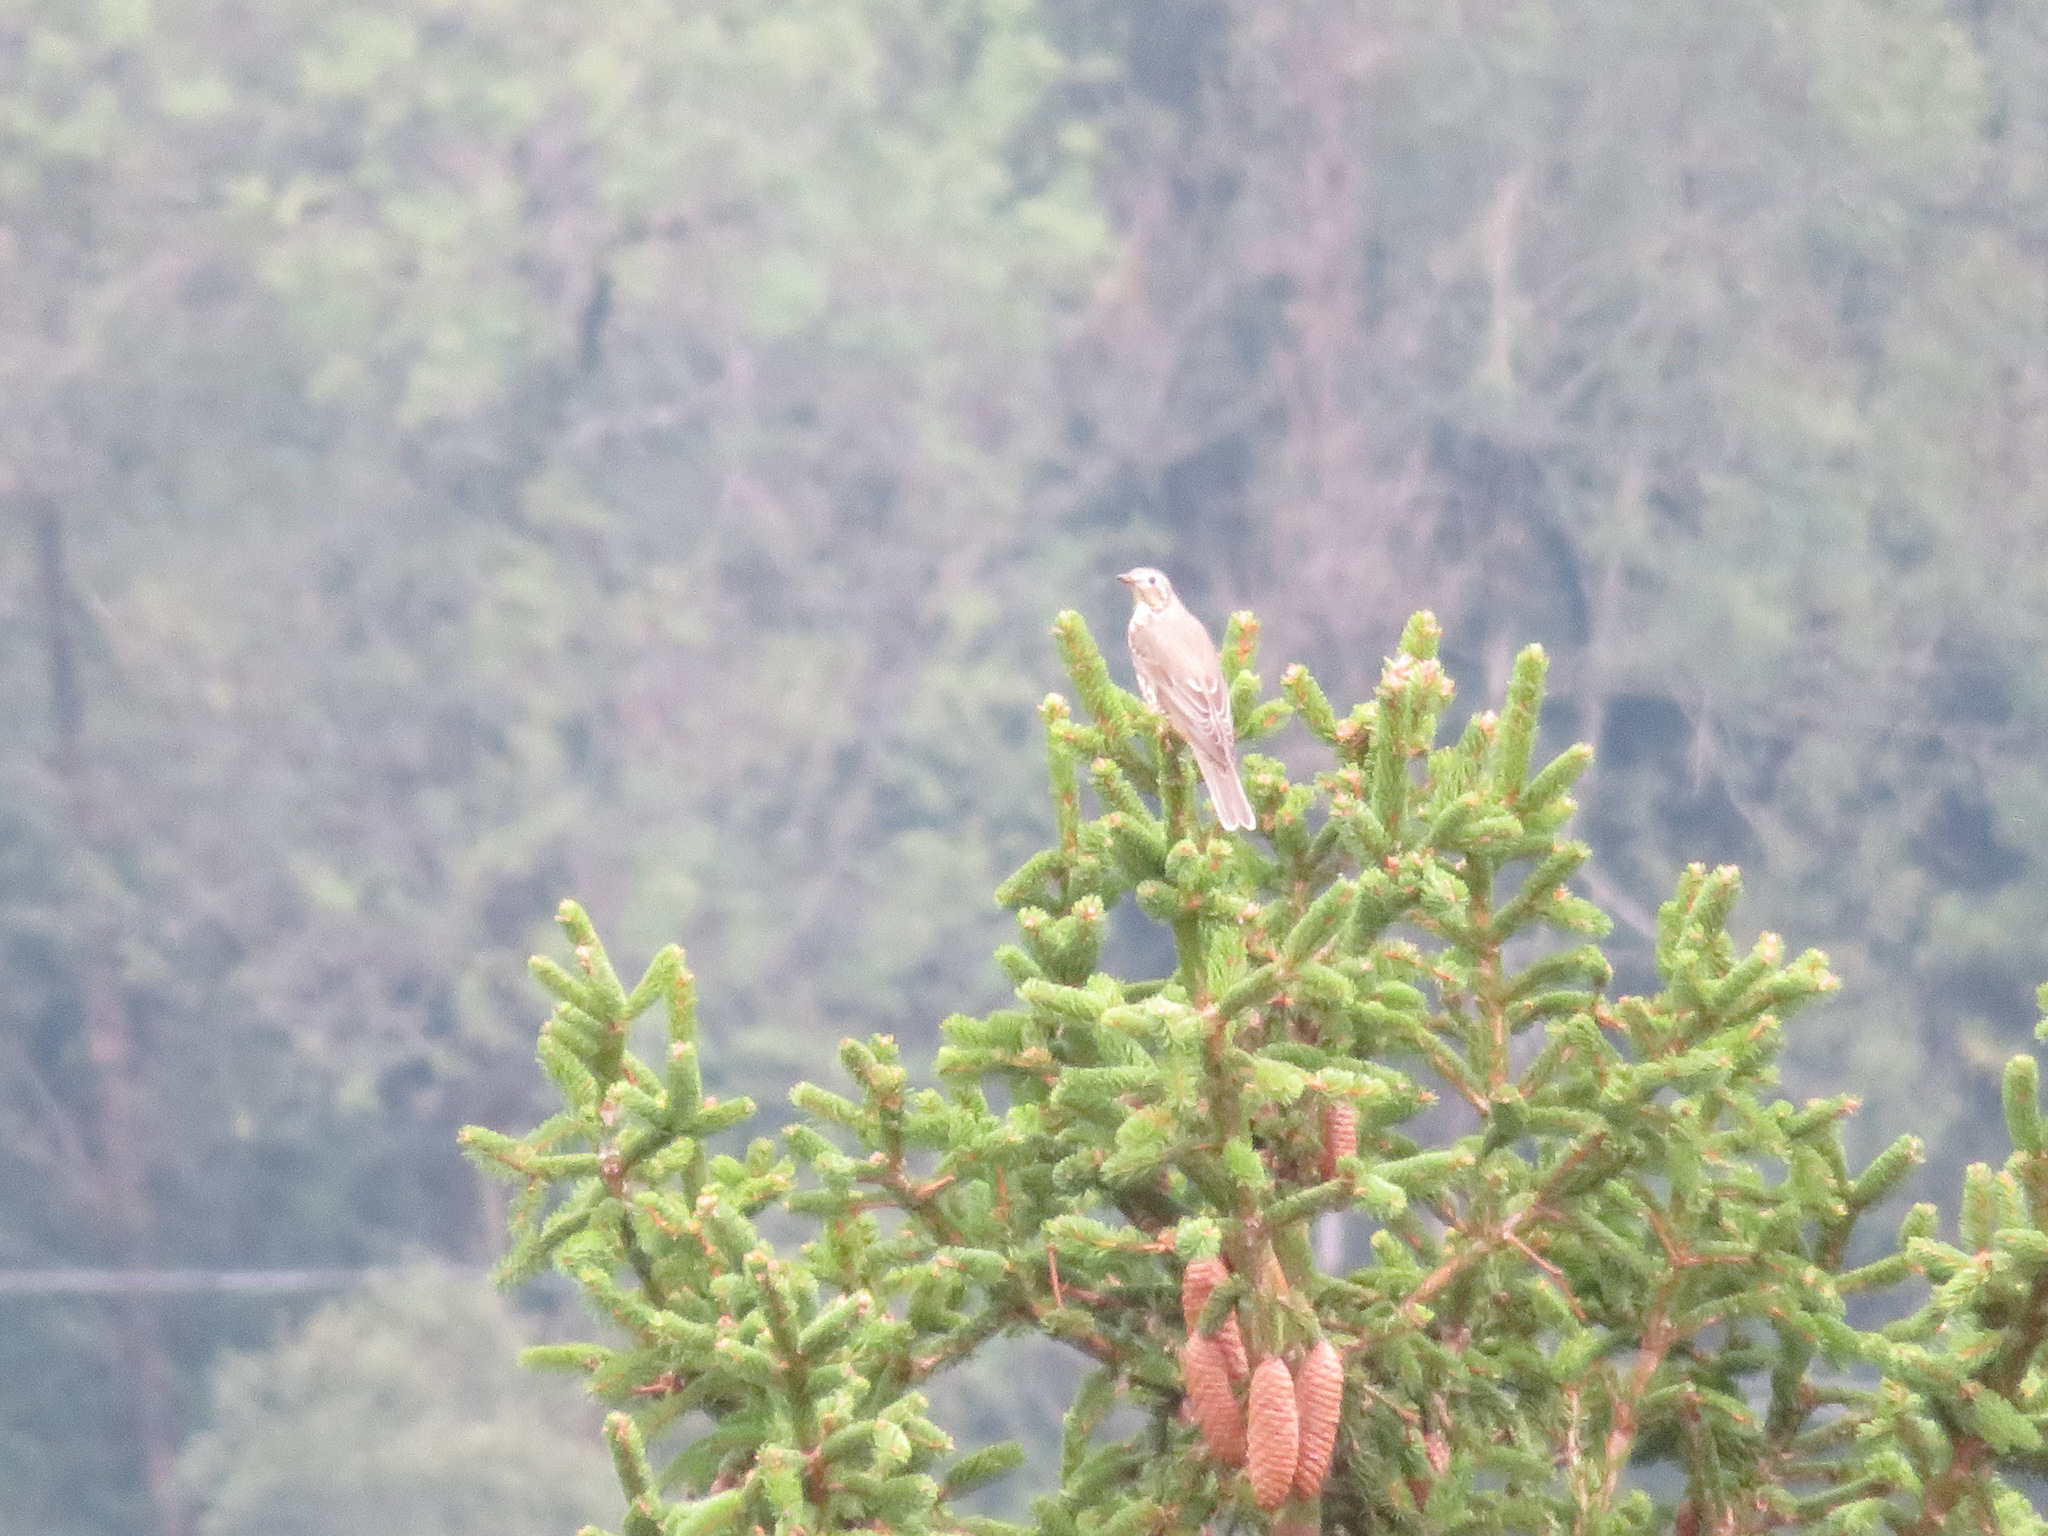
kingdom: Animalia
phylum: Chordata
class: Aves
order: Passeriformes
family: Turdidae
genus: Turdus
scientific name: Turdus viscivorus
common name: Mistle thrush
